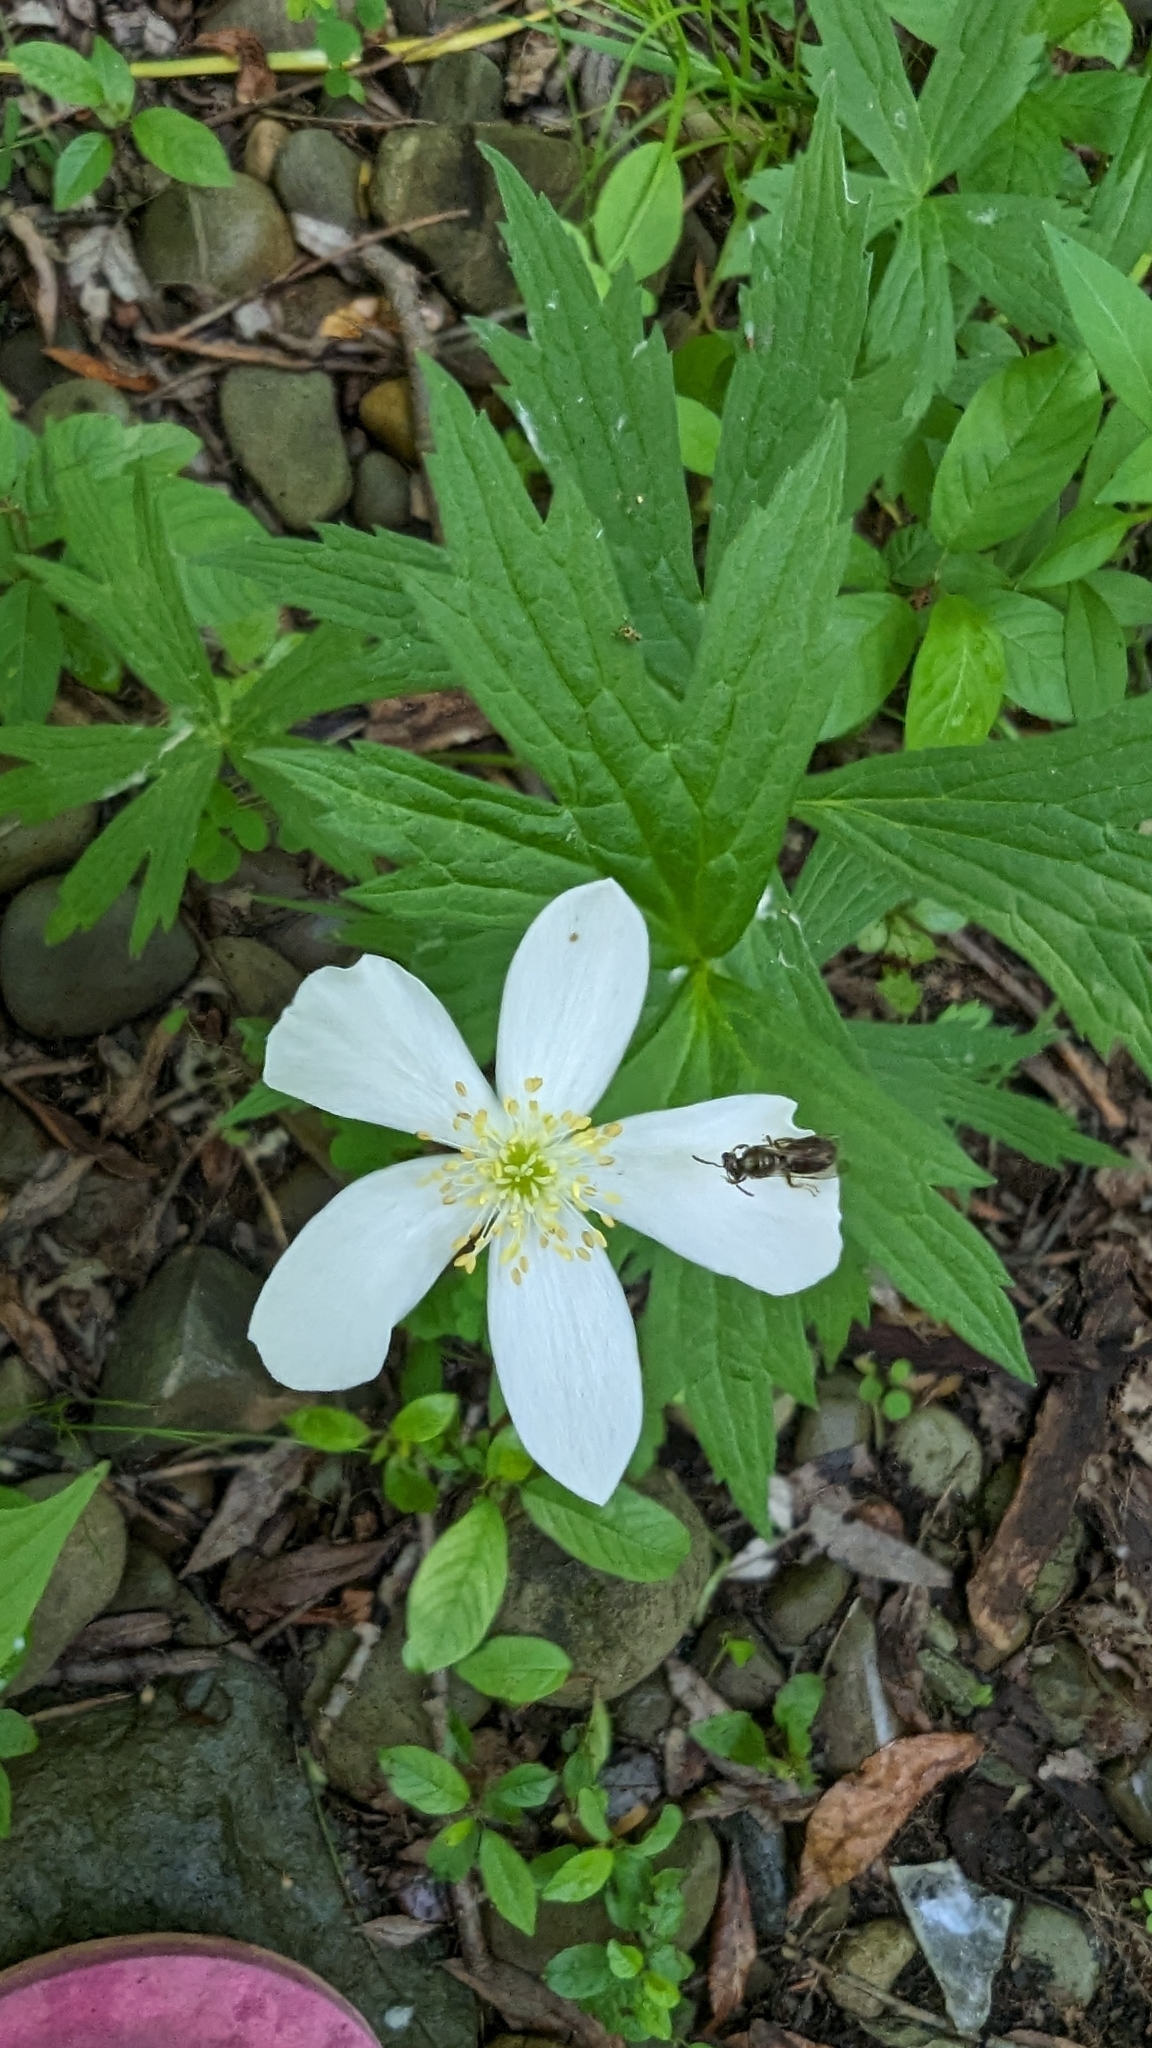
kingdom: Plantae
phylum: Tracheophyta
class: Magnoliopsida
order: Ranunculales
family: Ranunculaceae
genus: Anemonastrum
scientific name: Anemonastrum canadense
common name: Canada anemone
